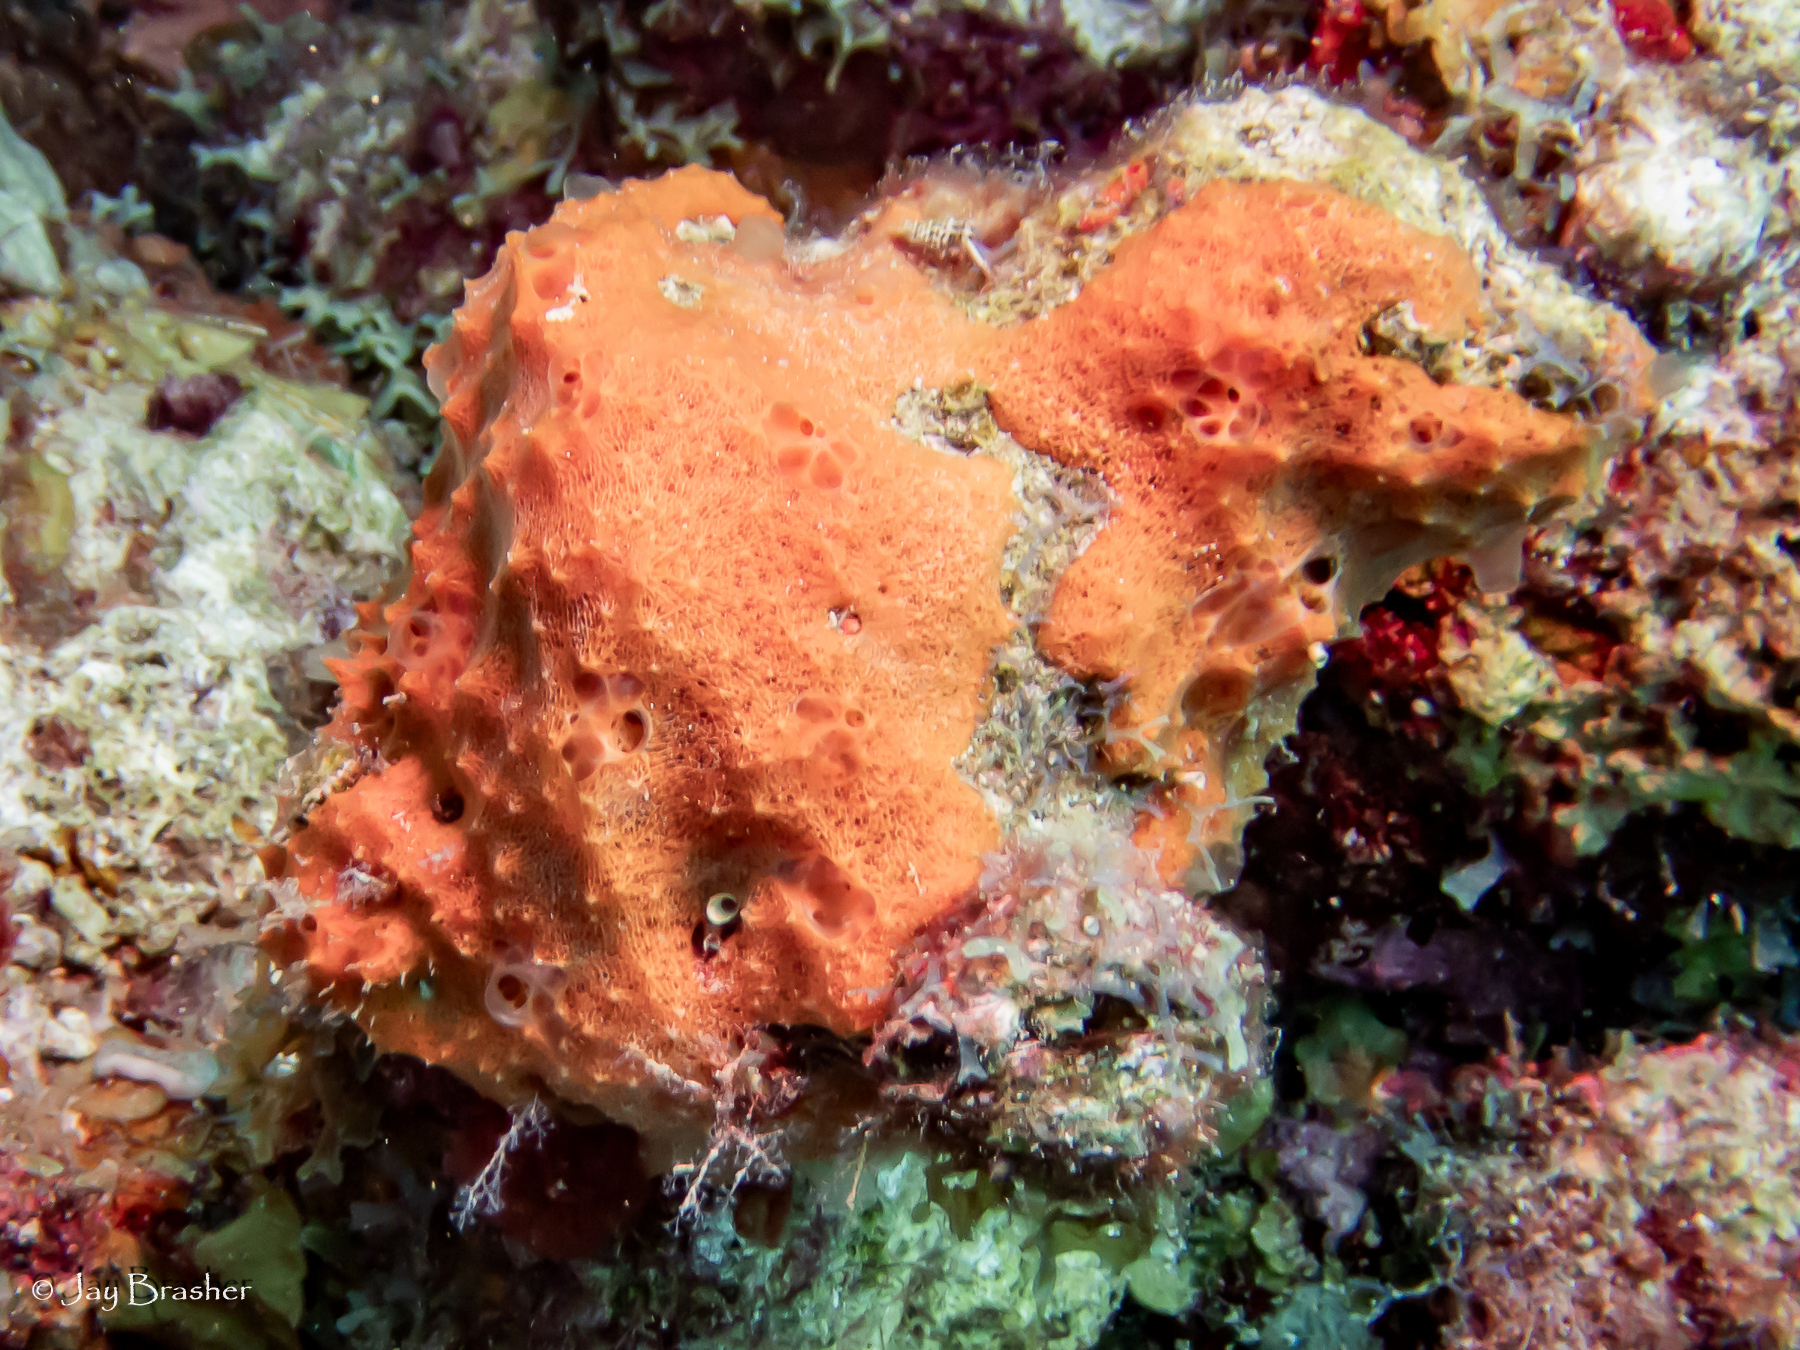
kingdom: Animalia
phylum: Porifera
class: Demospongiae
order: Scopalinida
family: Scopalinidae
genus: Scopalina
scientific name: Scopalina ruetzleri
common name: Orange lumpy encrusting sponge
